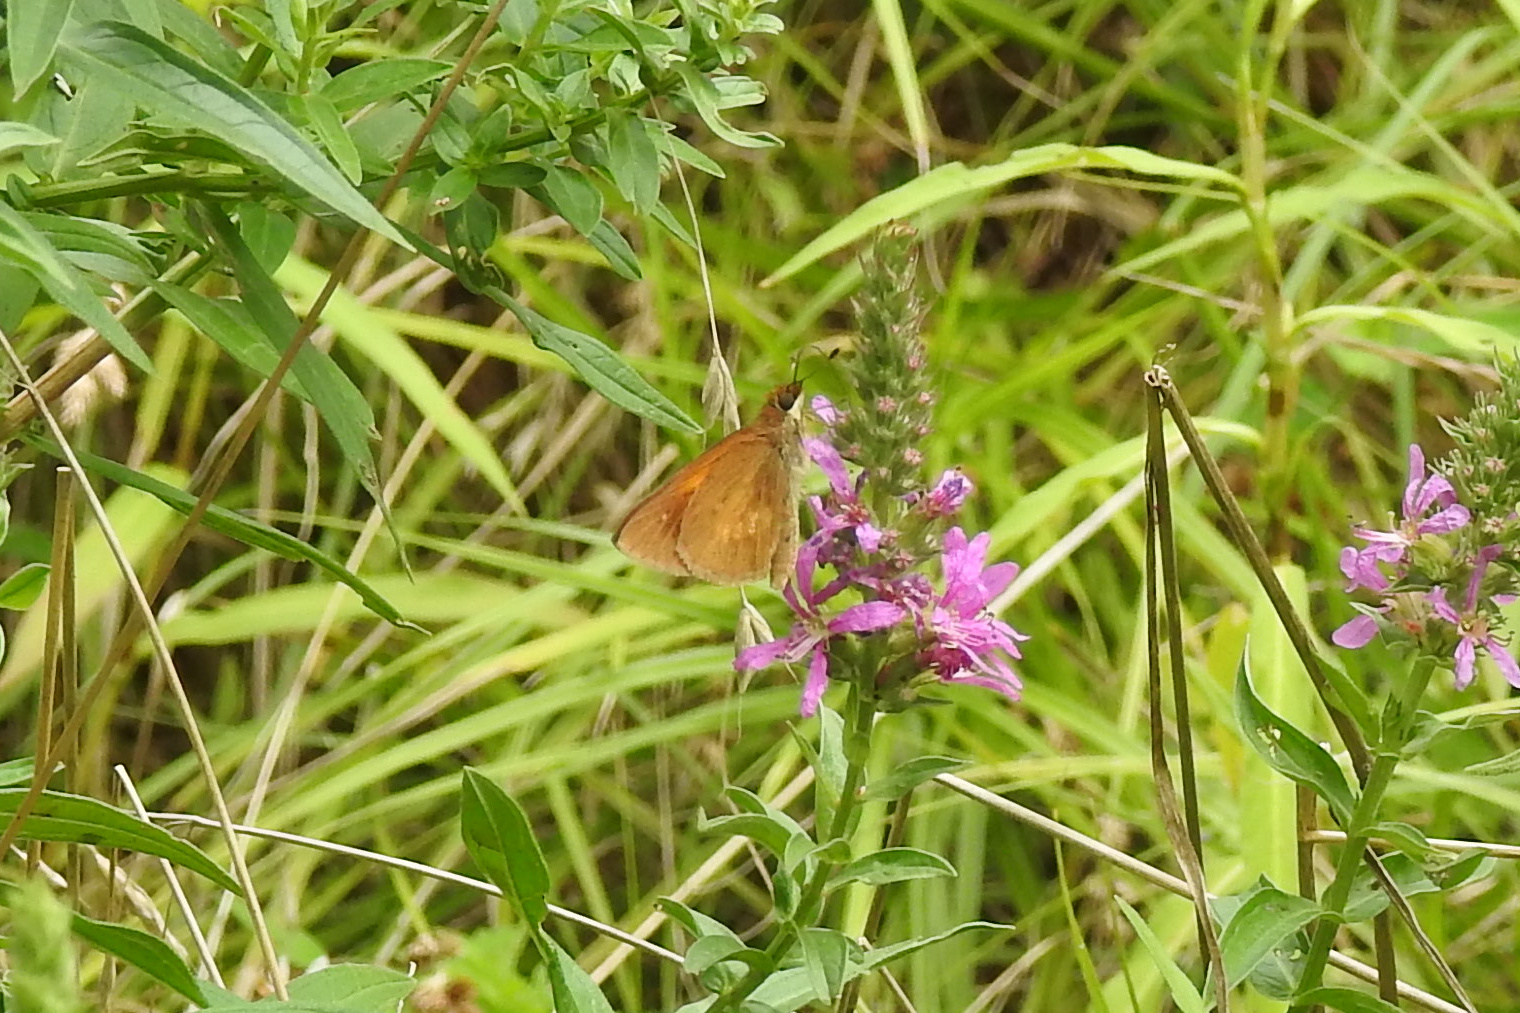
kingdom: Animalia
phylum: Arthropoda
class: Insecta
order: Lepidoptera
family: Hesperiidae
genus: Poanes
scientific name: Poanes viator
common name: Broad-winged skipper
